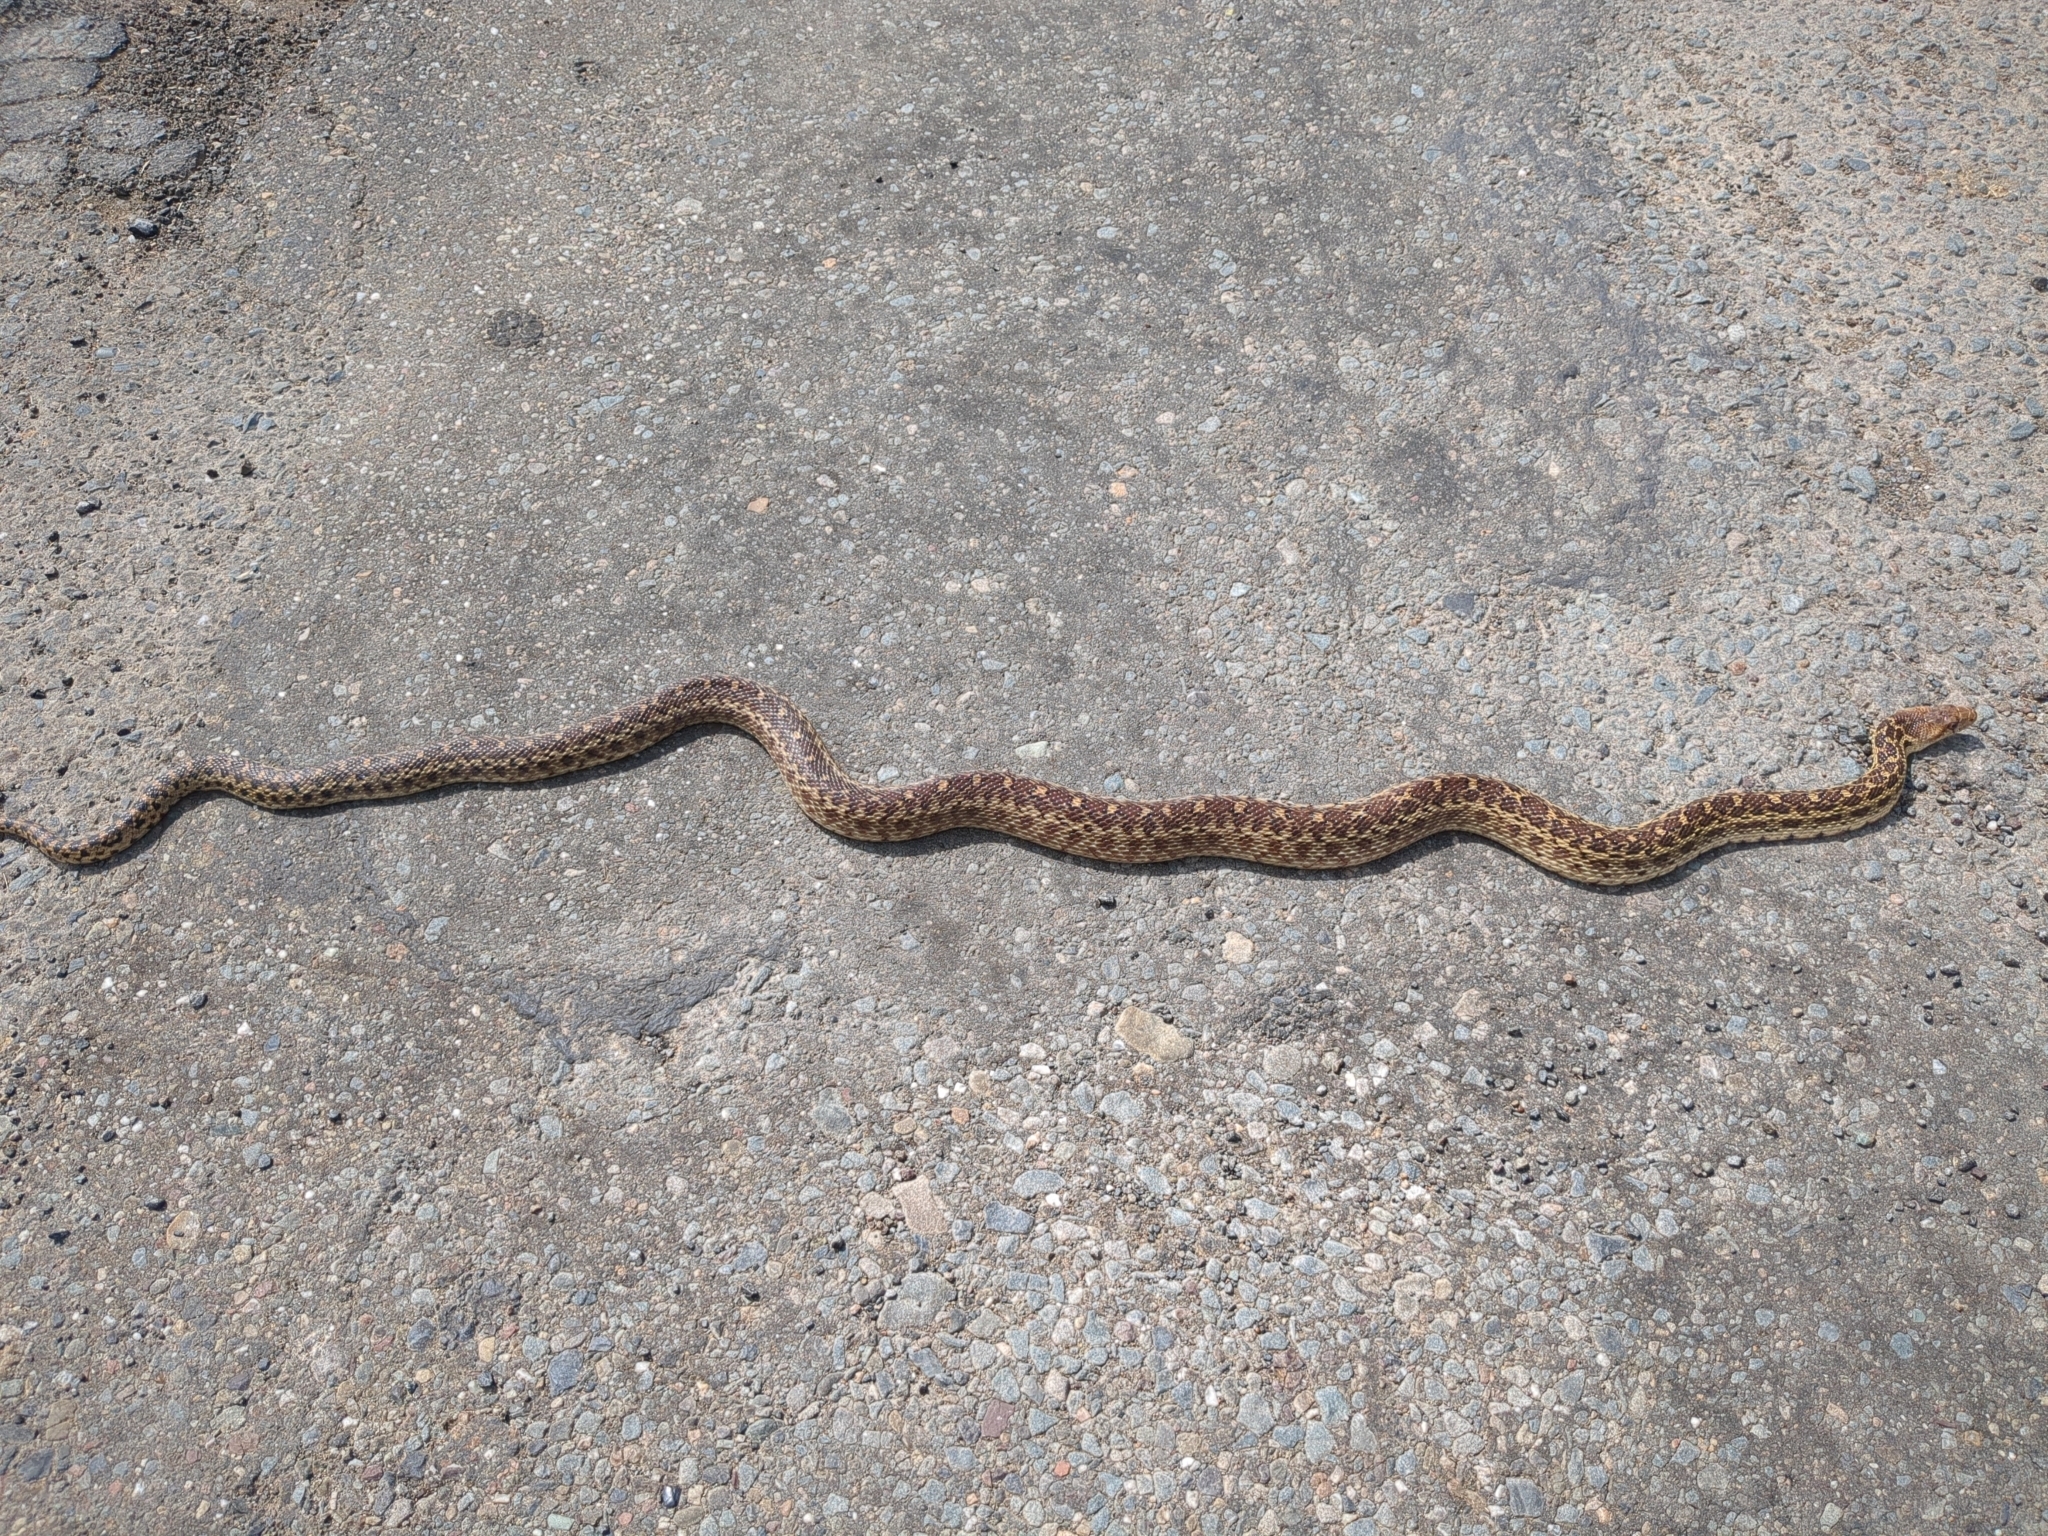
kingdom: Animalia
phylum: Chordata
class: Squamata
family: Colubridae
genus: Pituophis
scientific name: Pituophis catenifer
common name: Gopher snake
